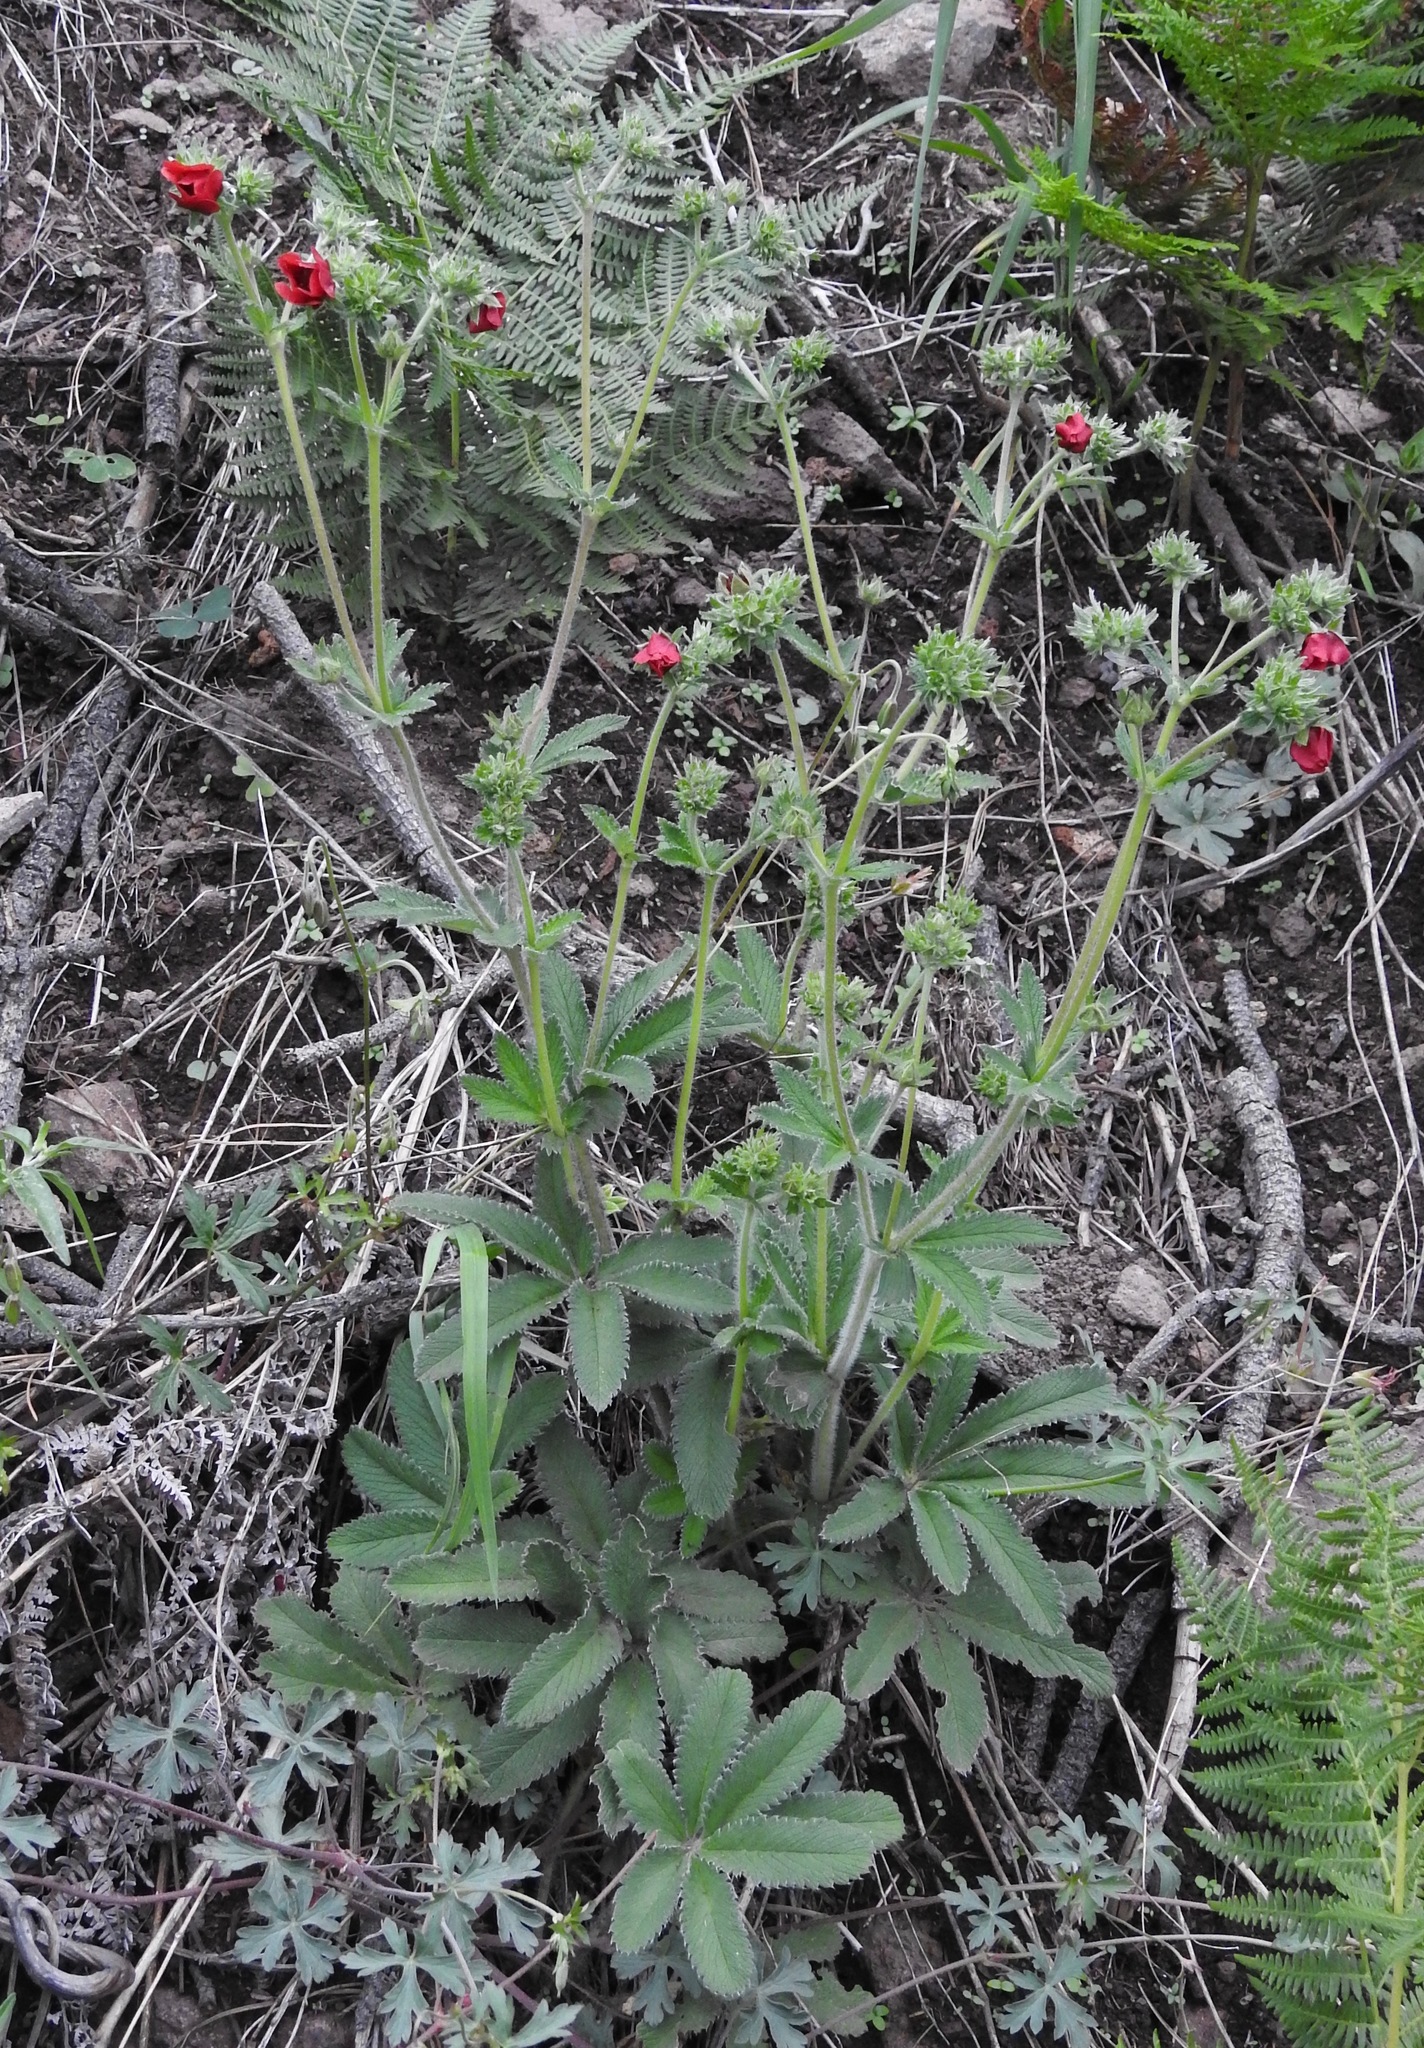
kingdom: Plantae
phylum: Tracheophyta
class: Magnoliopsida
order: Rosales
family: Rosaceae
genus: Potentilla
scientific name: Potentilla thurberi
